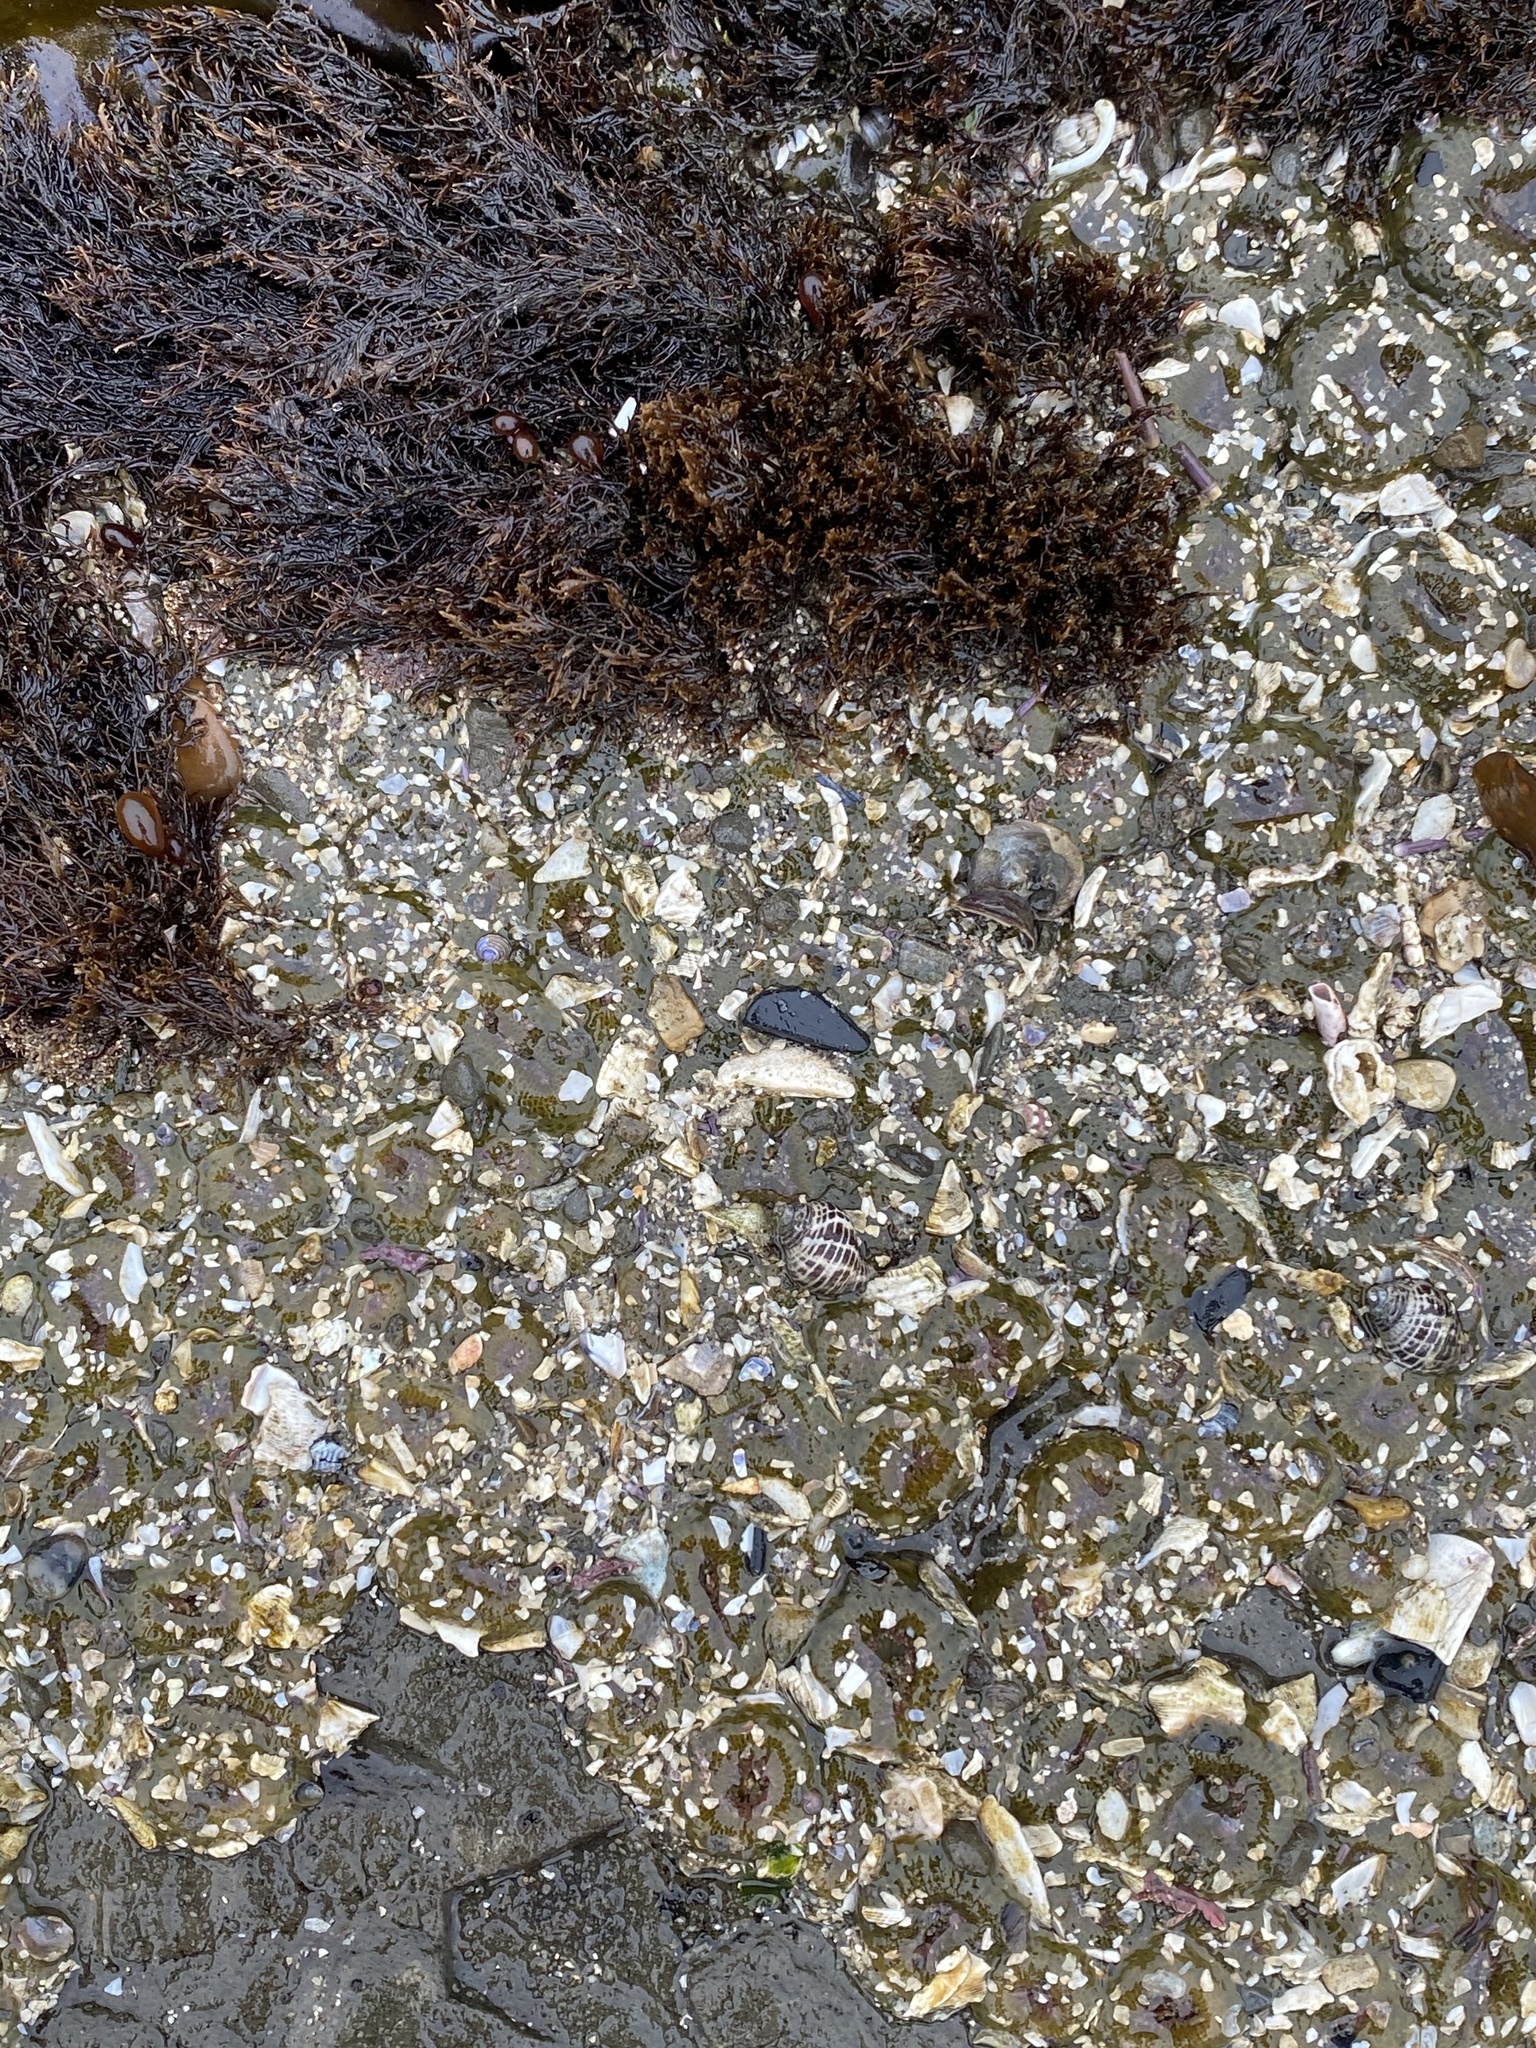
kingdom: Animalia
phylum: Cnidaria
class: Anthozoa
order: Actiniaria
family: Actiniidae
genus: Anthopleura
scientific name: Anthopleura elegantissima
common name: Clonal anemone
